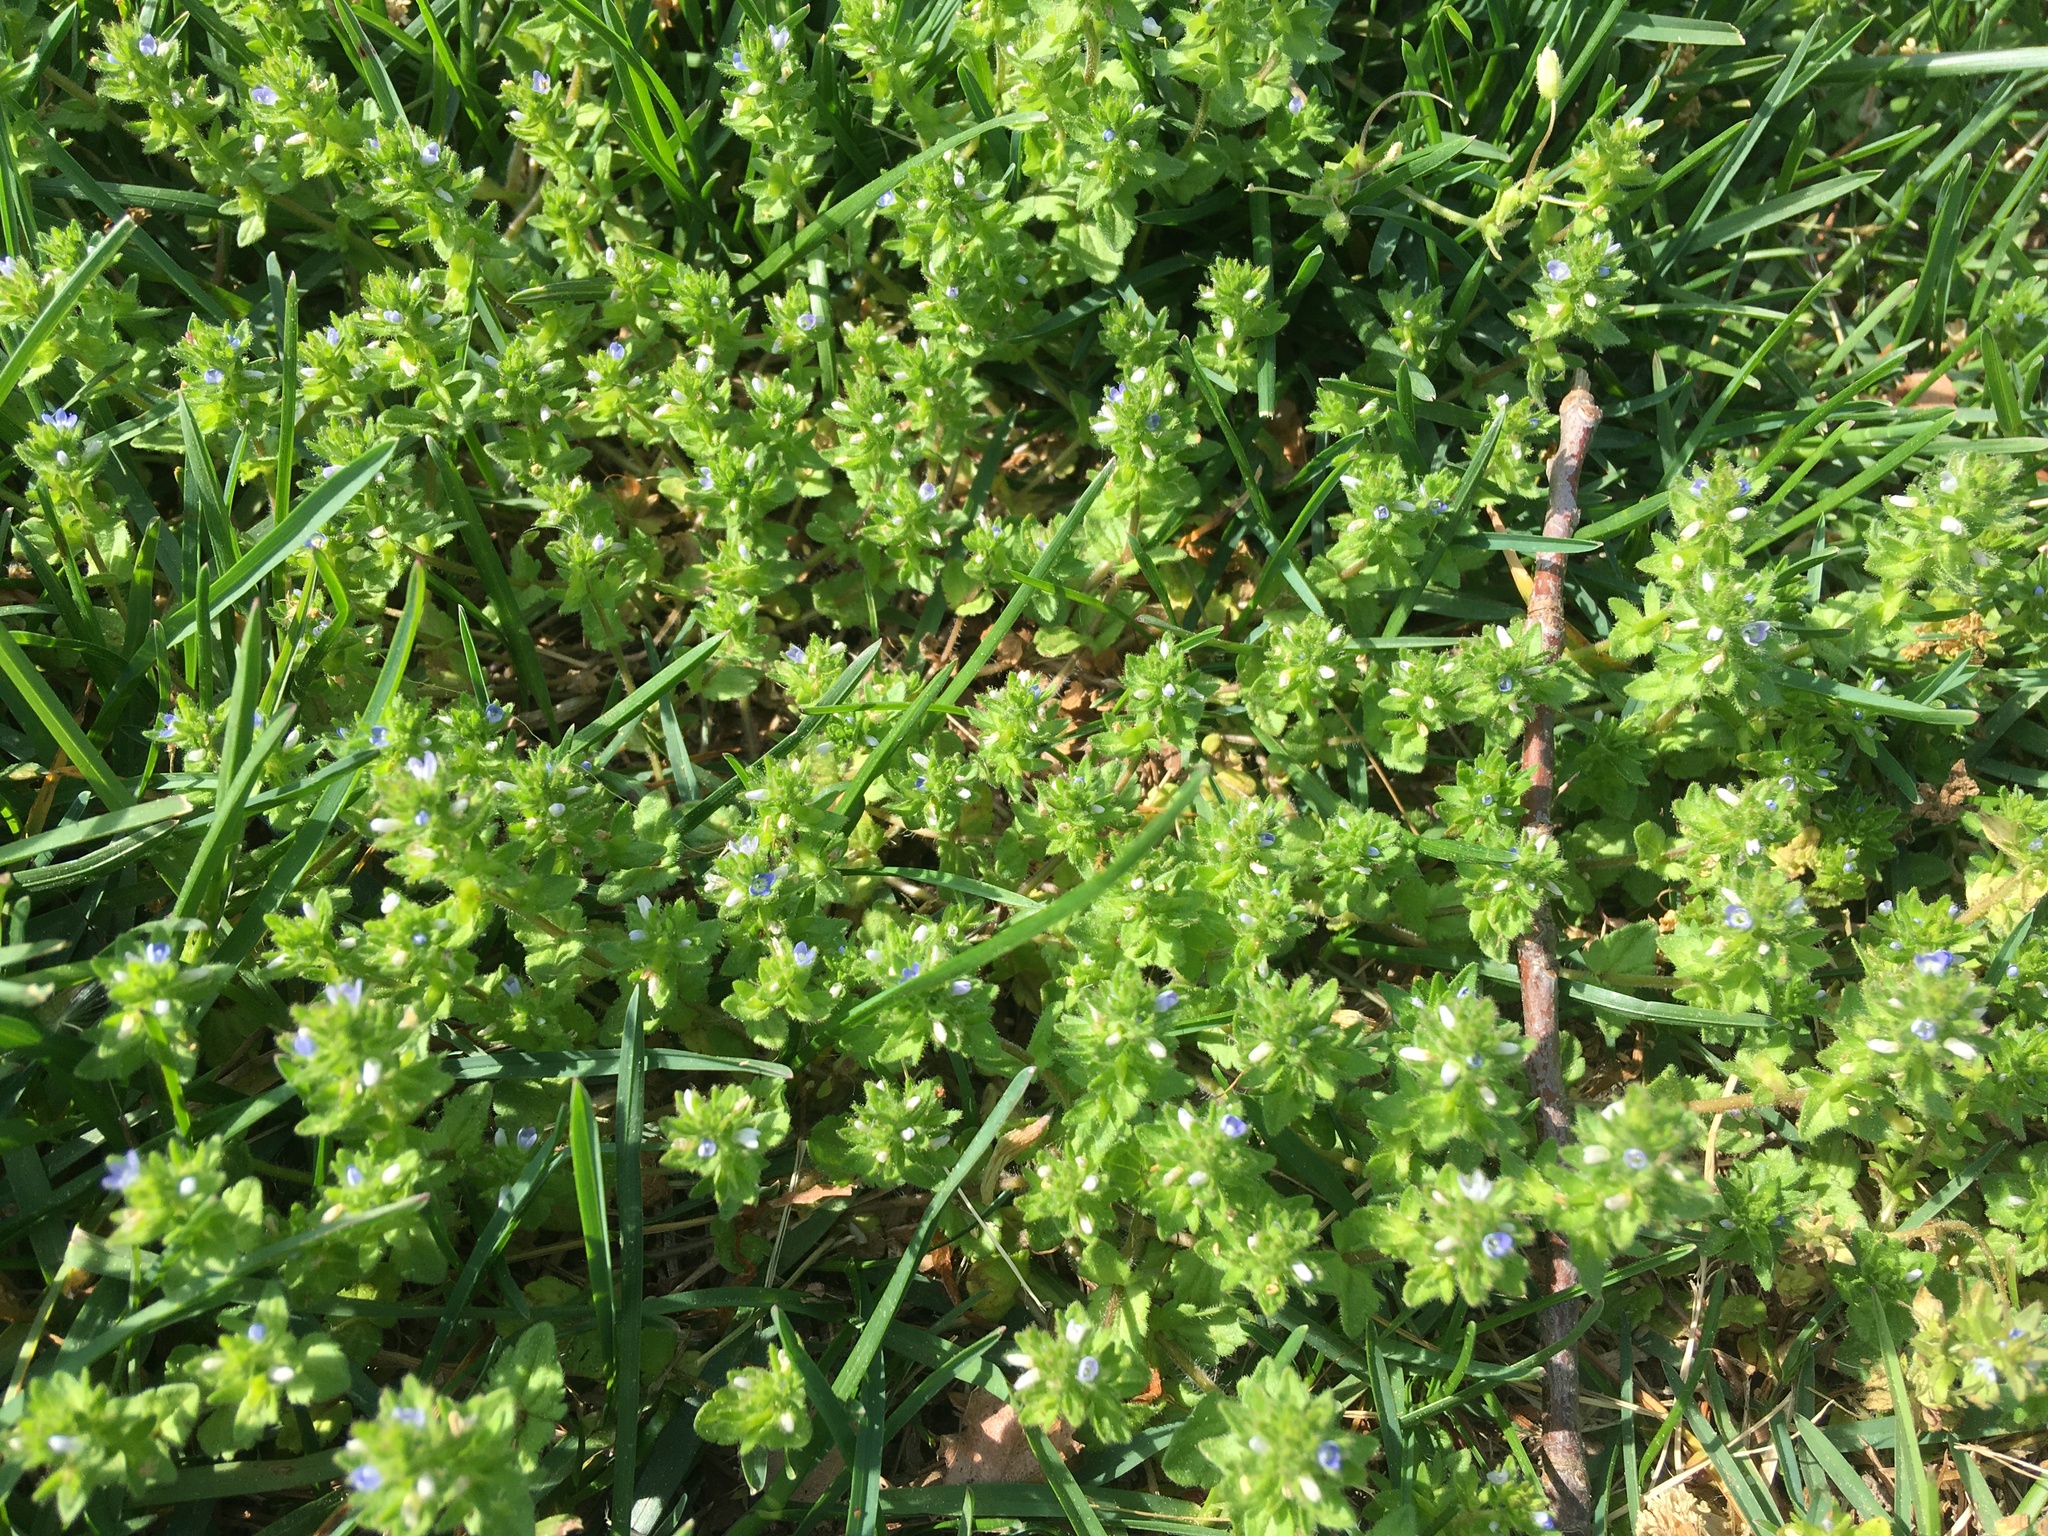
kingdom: Plantae
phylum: Tracheophyta
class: Magnoliopsida
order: Lamiales
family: Plantaginaceae
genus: Veronica
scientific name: Veronica arvensis
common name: Corn speedwell
